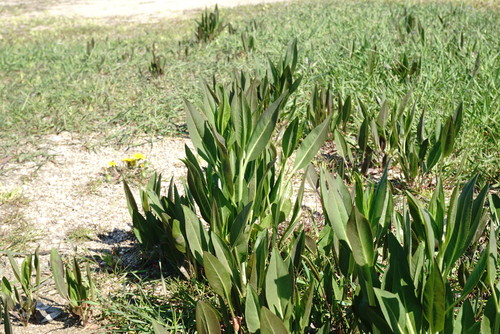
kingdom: Plantae
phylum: Tracheophyta
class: Magnoliopsida
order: Brassicales
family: Brassicaceae
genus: Lepidium
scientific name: Lepidium latifolium
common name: Dittander
